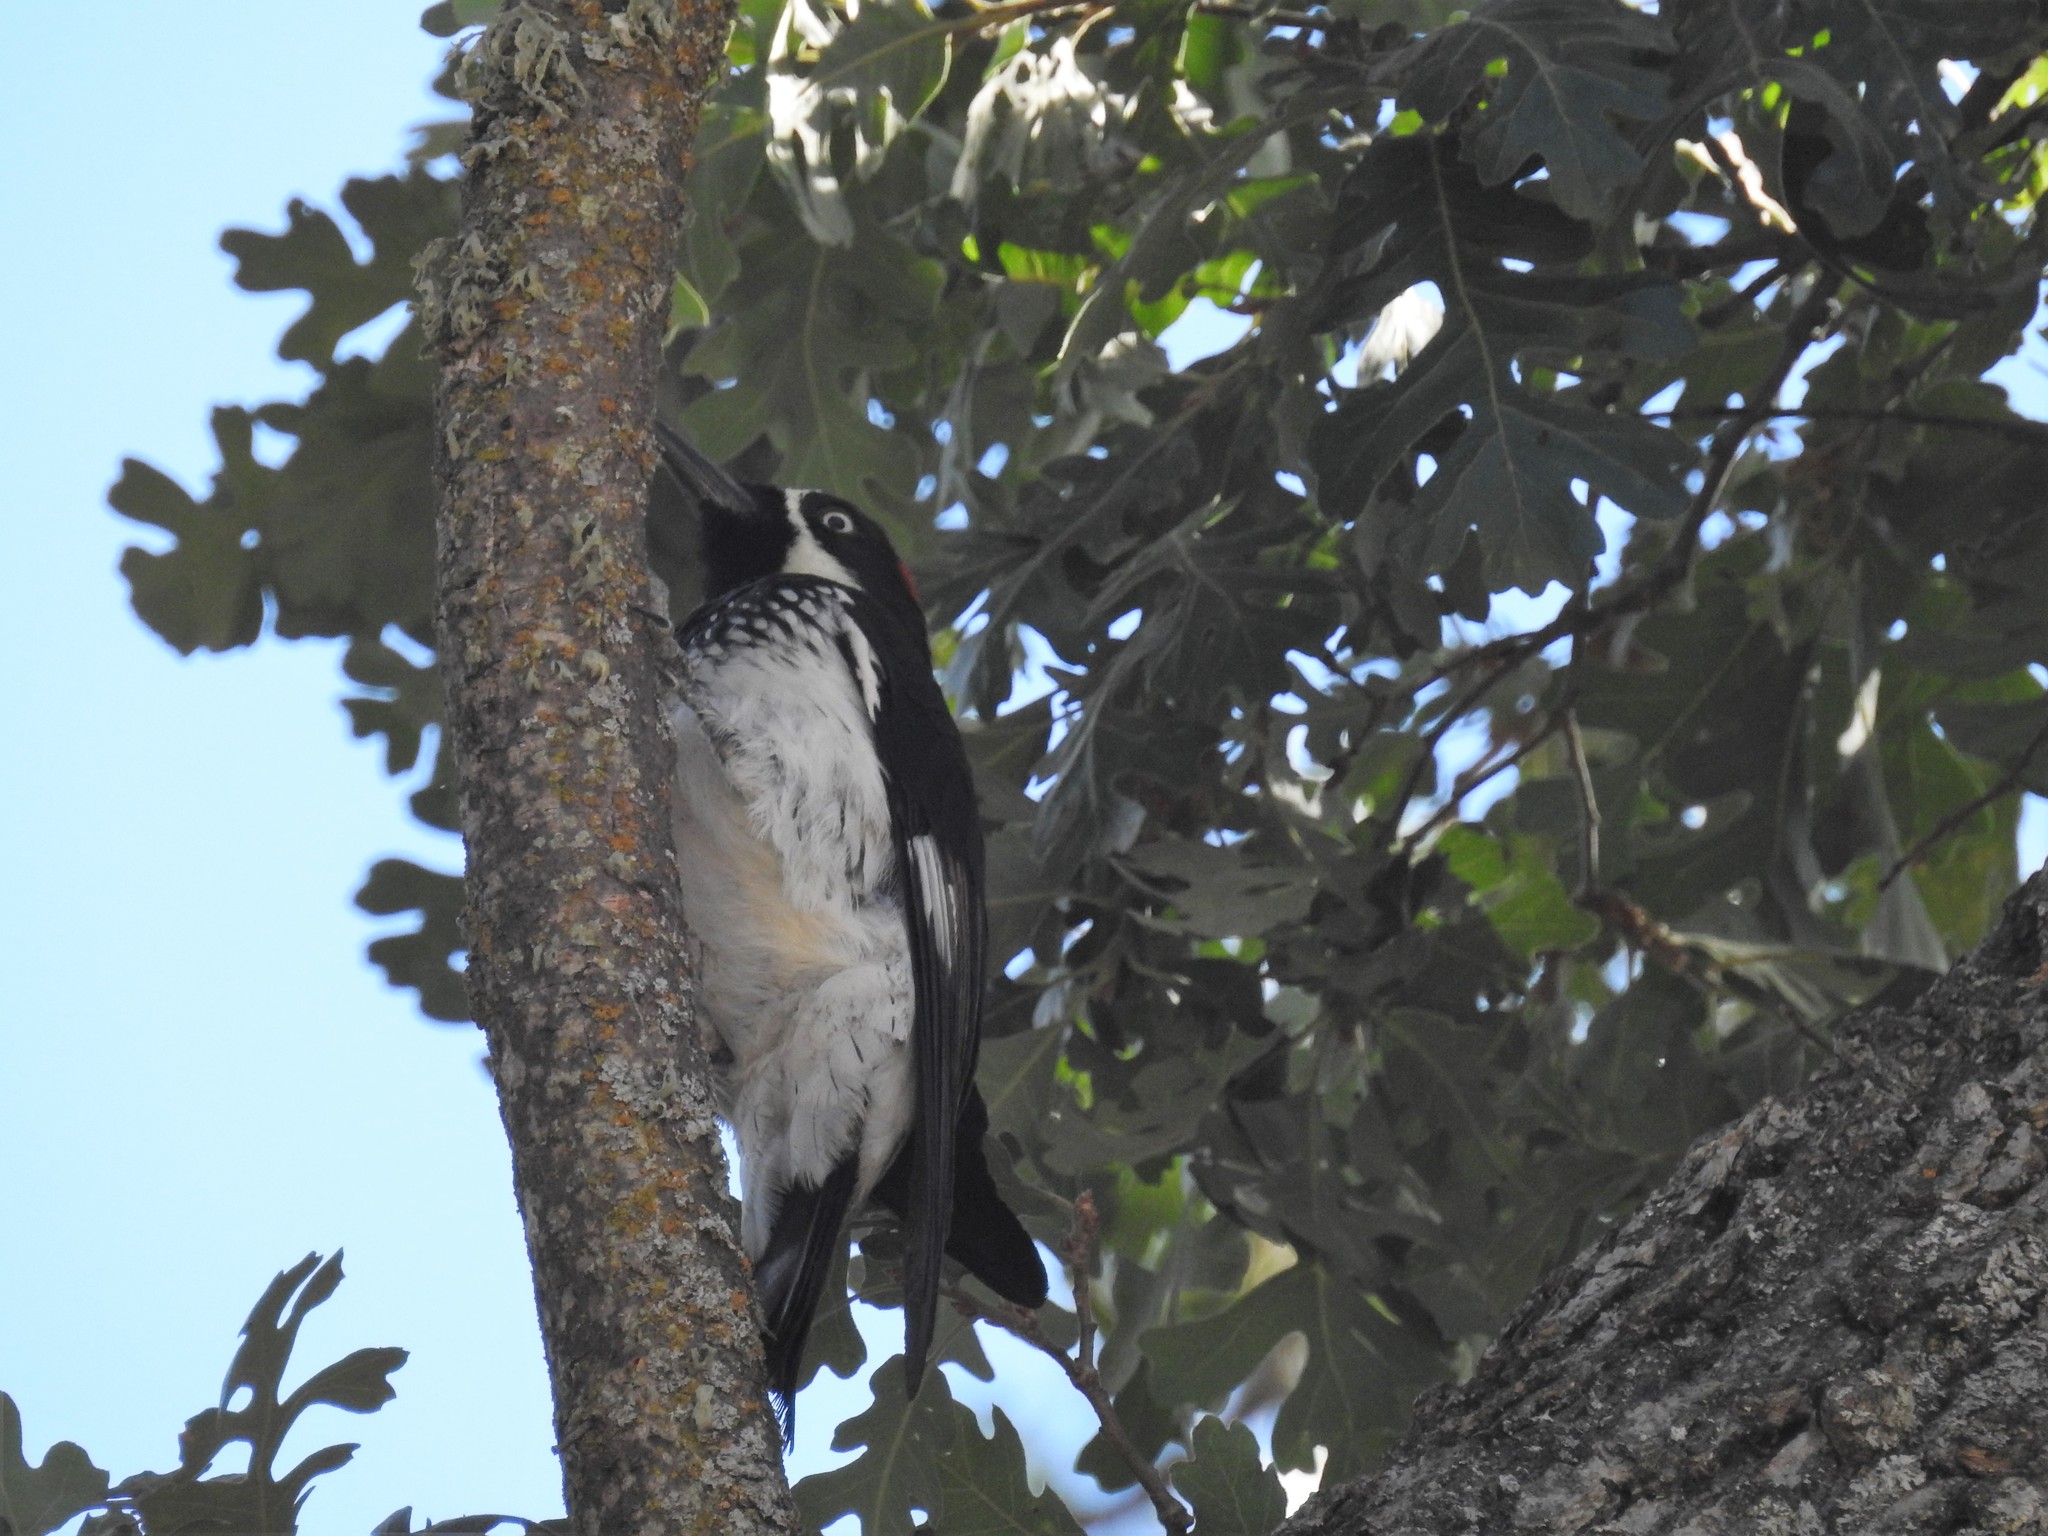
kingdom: Animalia
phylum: Chordata
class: Aves
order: Piciformes
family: Picidae
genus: Melanerpes
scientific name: Melanerpes formicivorus
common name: Acorn woodpecker
